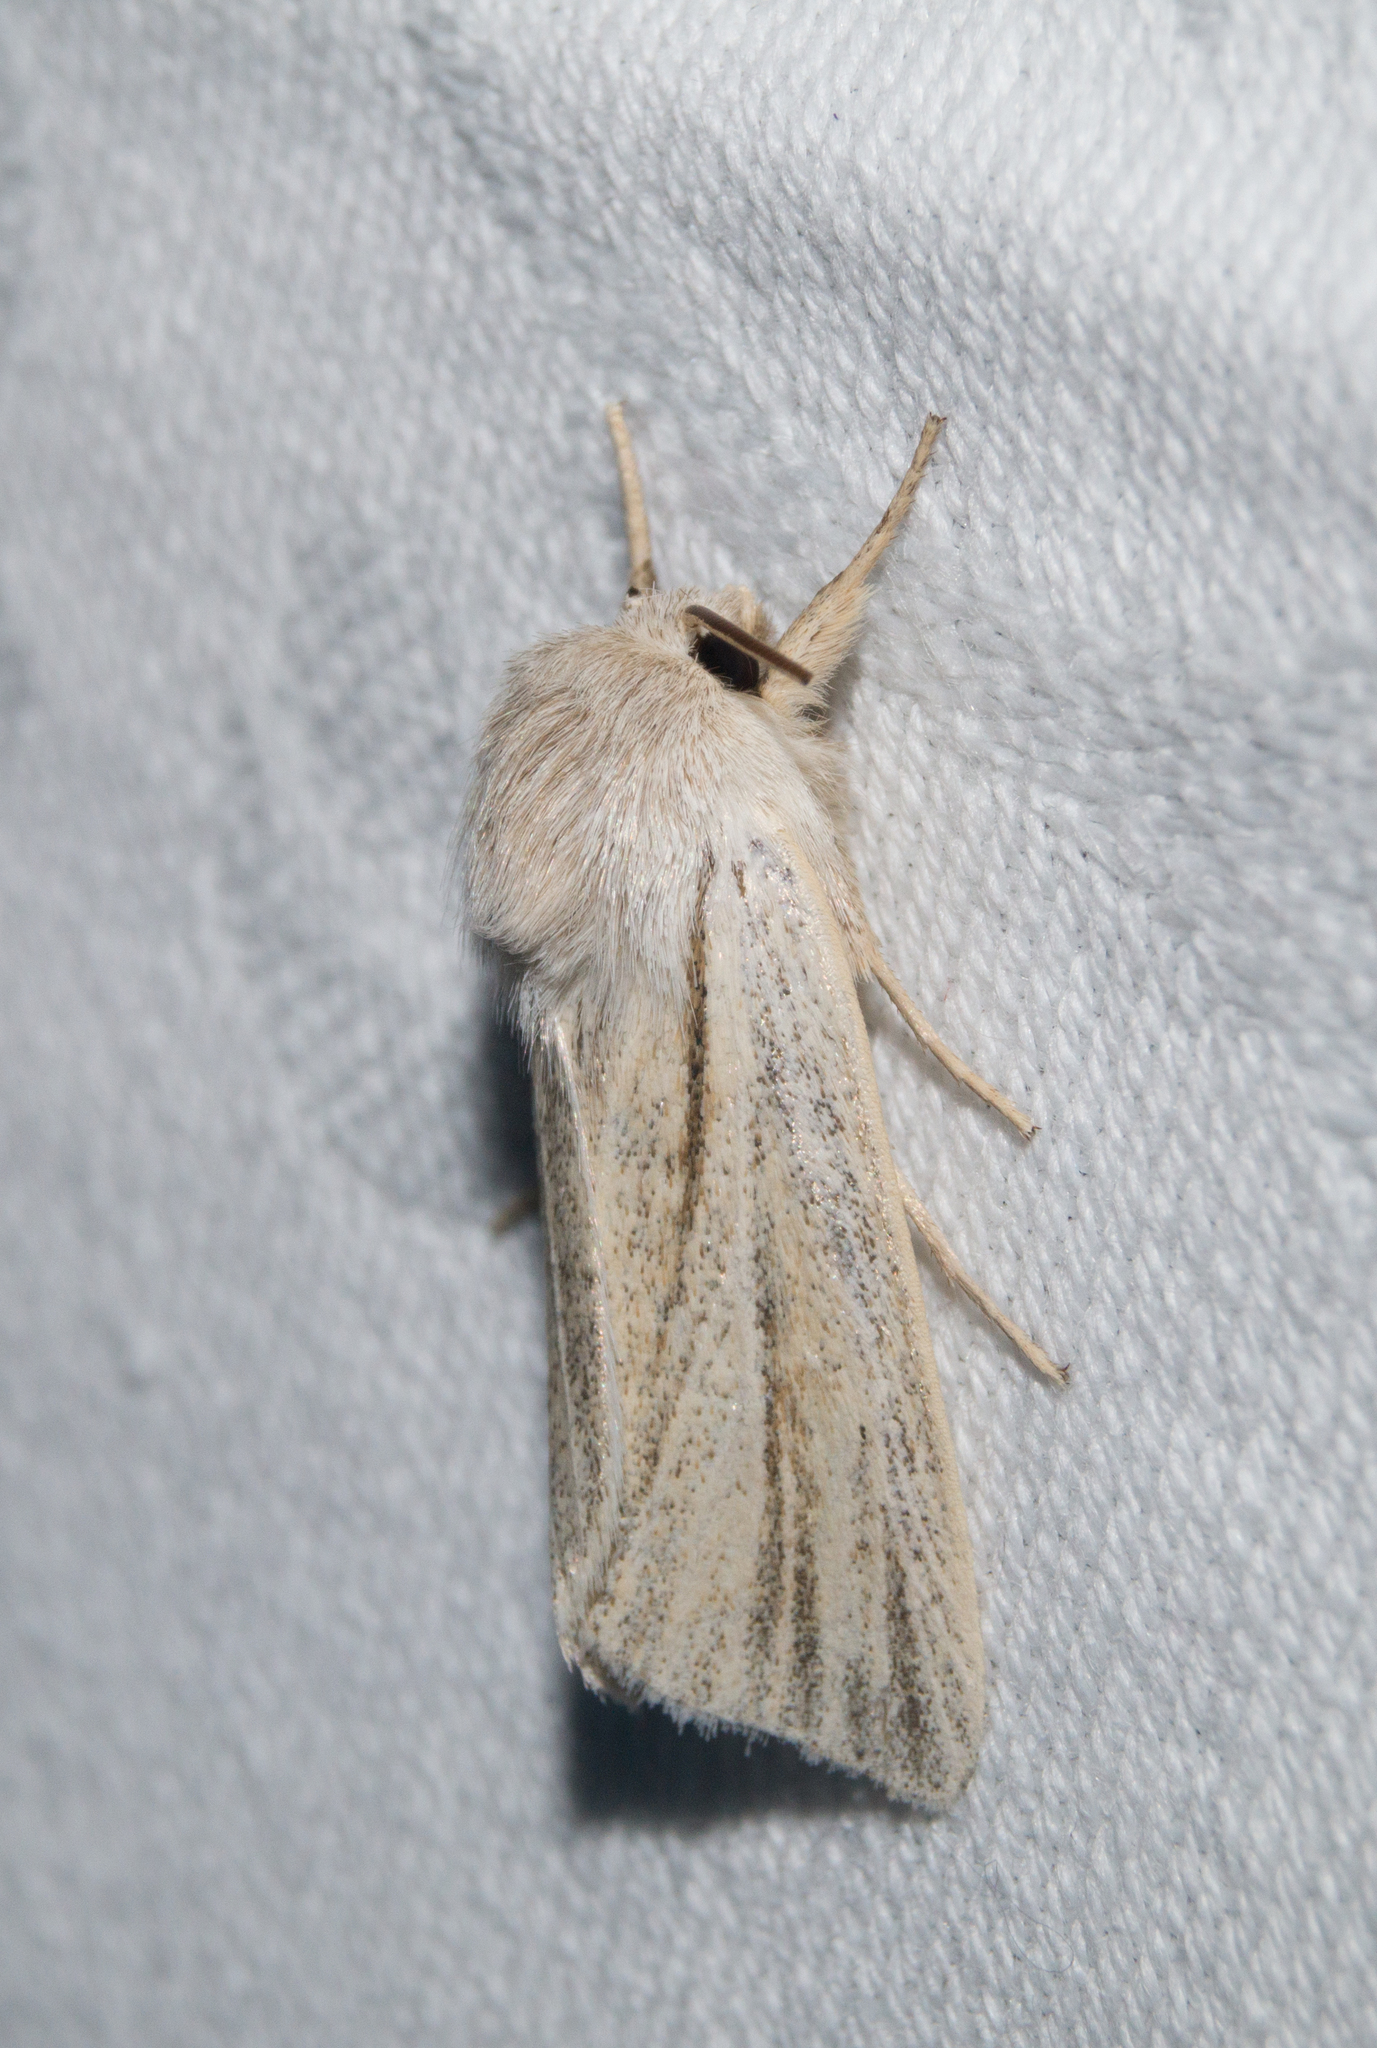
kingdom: Animalia
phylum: Arthropoda
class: Insecta
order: Lepidoptera
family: Noctuidae
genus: Simyra
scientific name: Simyra albovenosa
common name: Reed dagger
